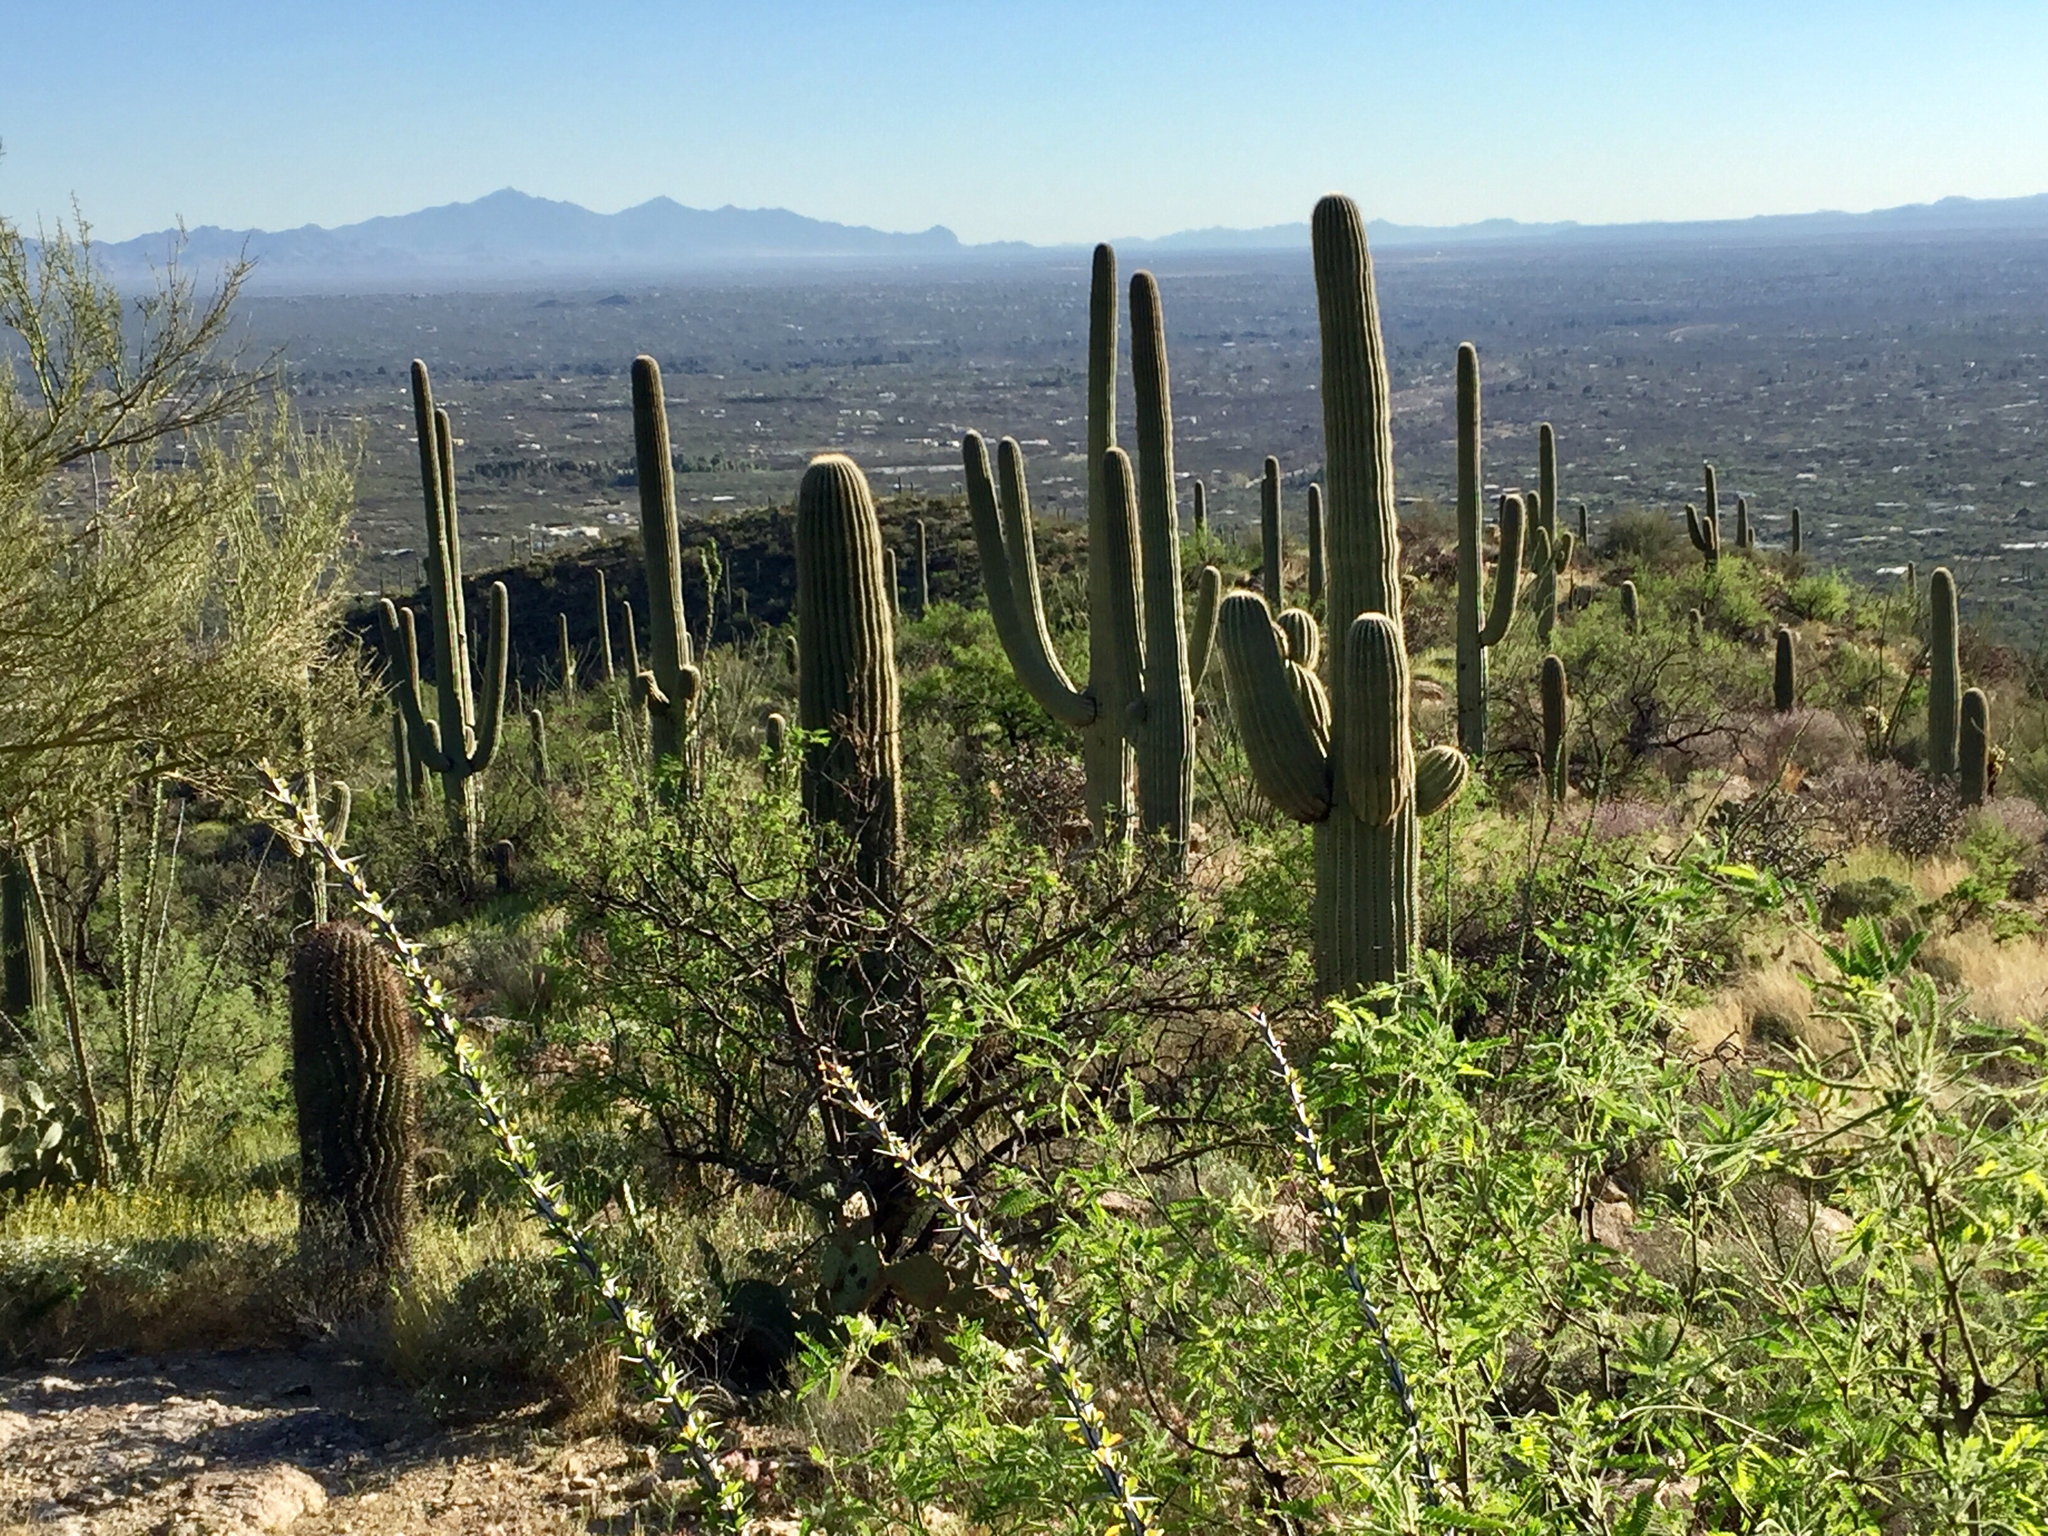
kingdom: Plantae
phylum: Tracheophyta
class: Magnoliopsida
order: Caryophyllales
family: Cactaceae
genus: Carnegiea
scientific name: Carnegiea gigantea
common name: Saguaro
